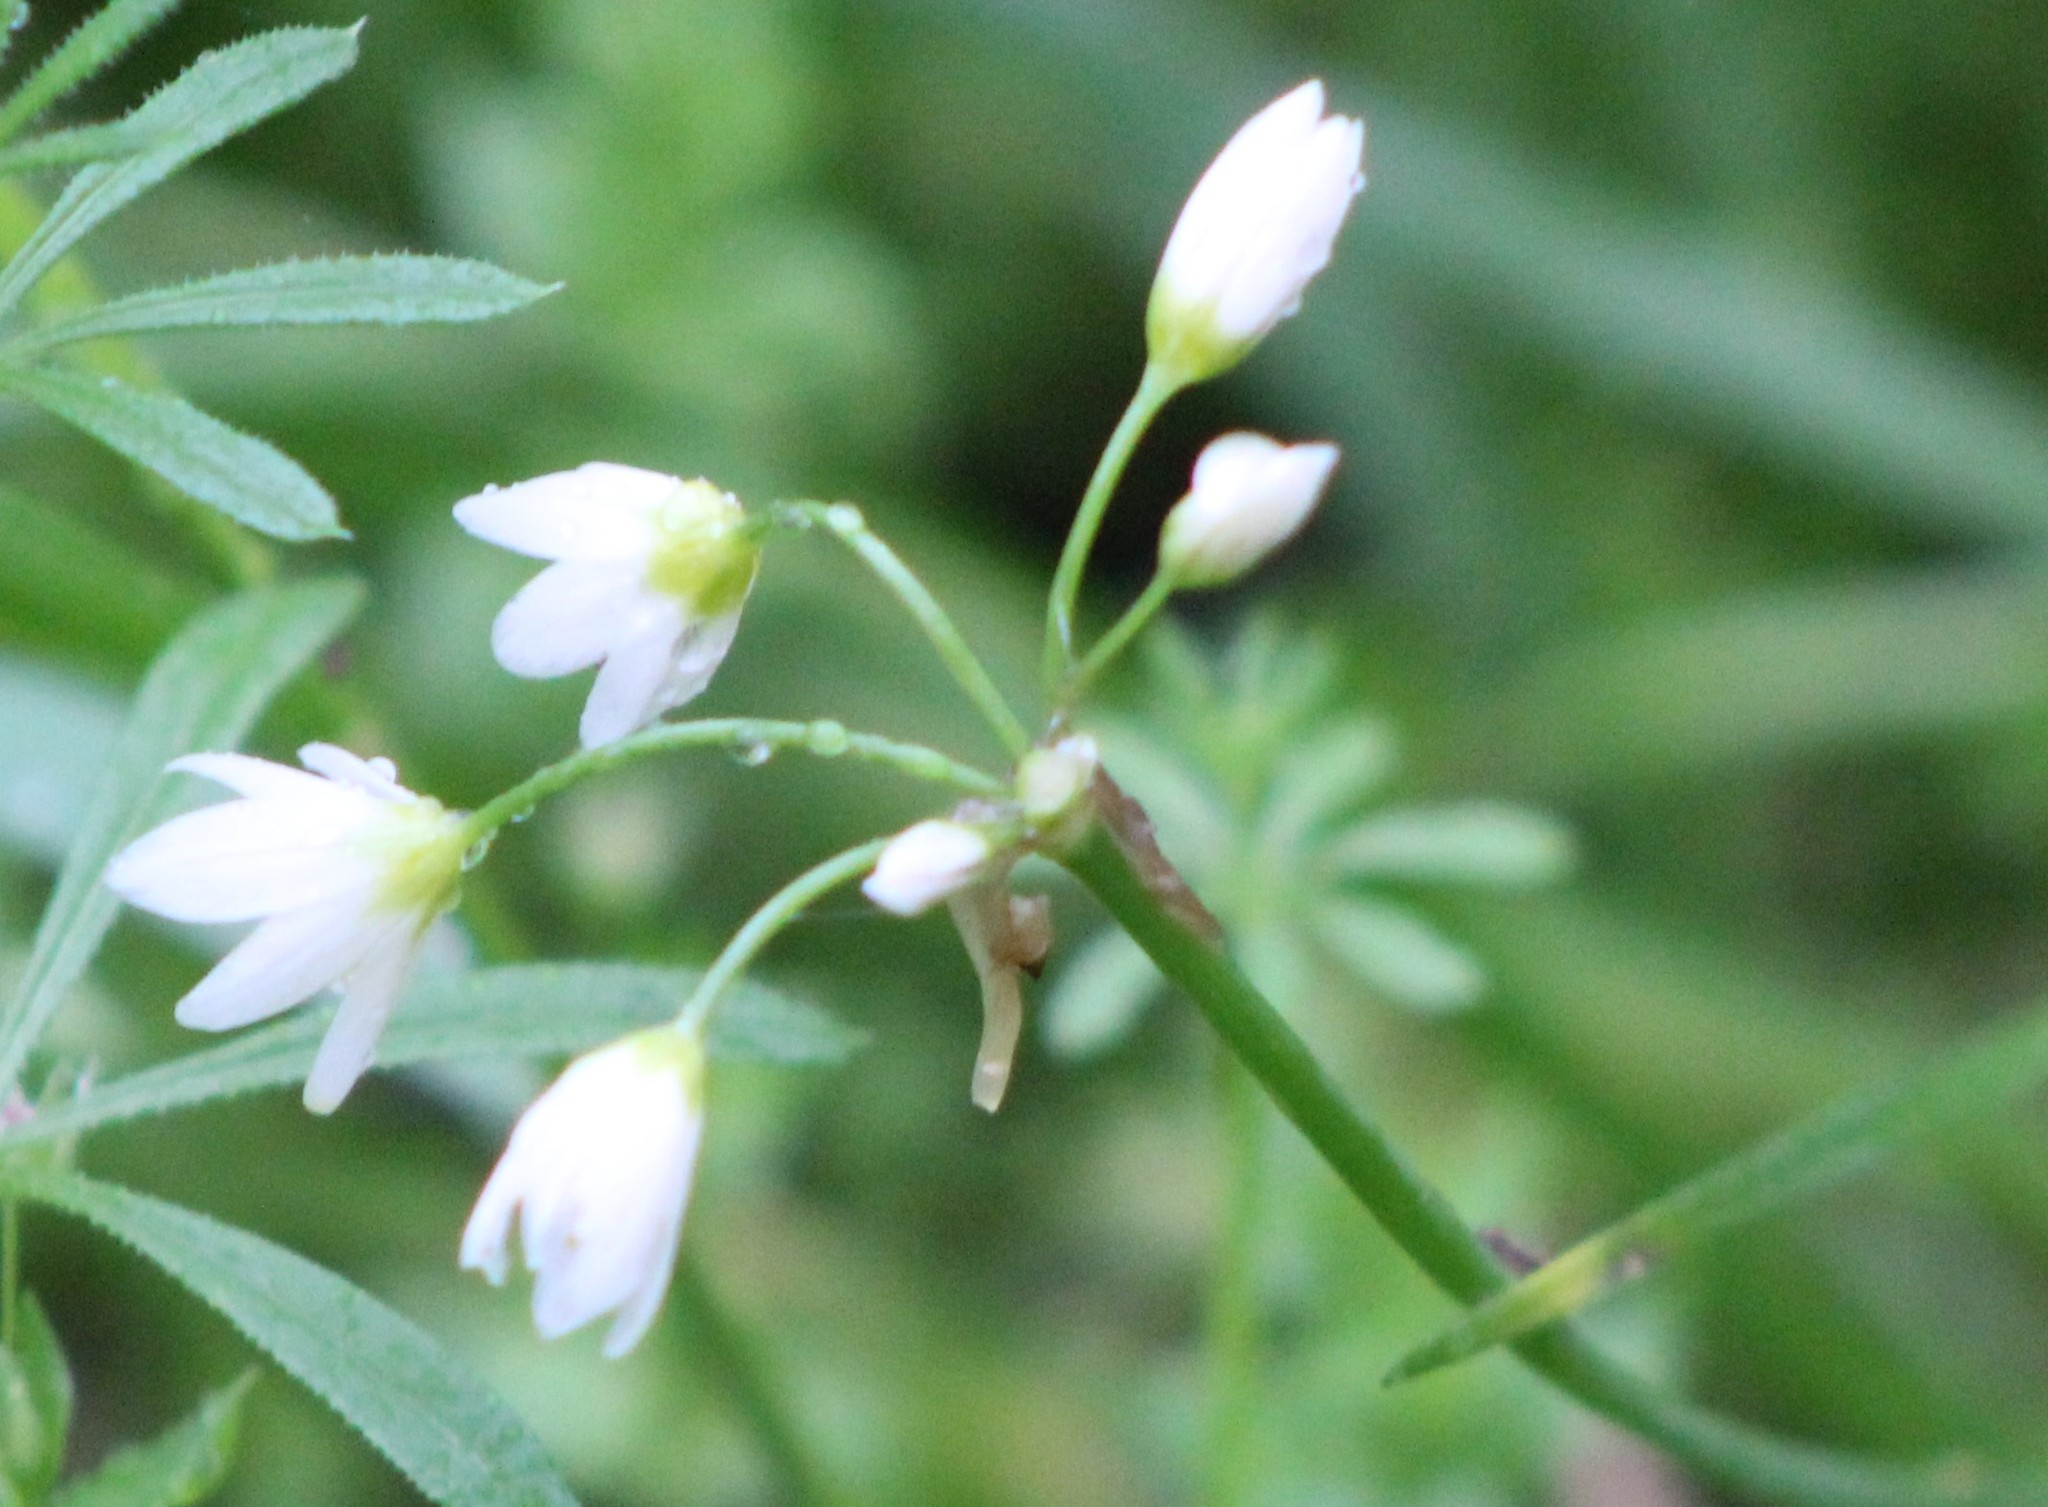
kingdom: Plantae
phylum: Tracheophyta
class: Liliopsida
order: Asparagales
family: Amaryllidaceae
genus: Nothoscordum
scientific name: Nothoscordum bivalve
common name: Crow-poison
